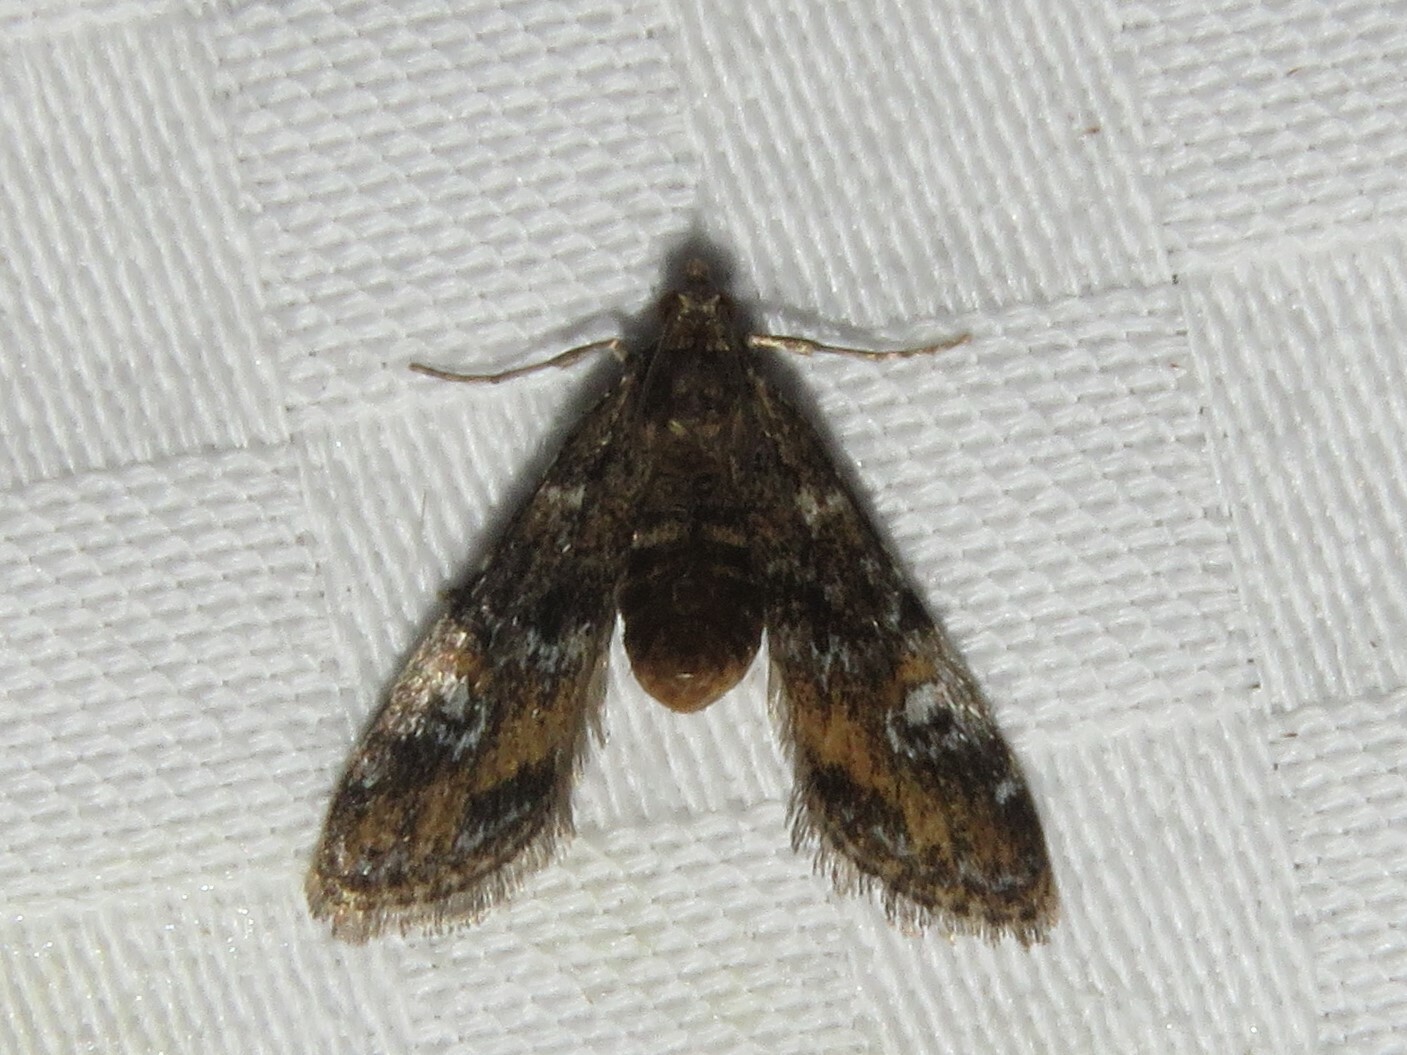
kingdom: Animalia
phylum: Arthropoda
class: Insecta
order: Lepidoptera
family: Crambidae
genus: Elophila
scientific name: Elophila obliteralis
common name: Waterlily leafcutter moth
